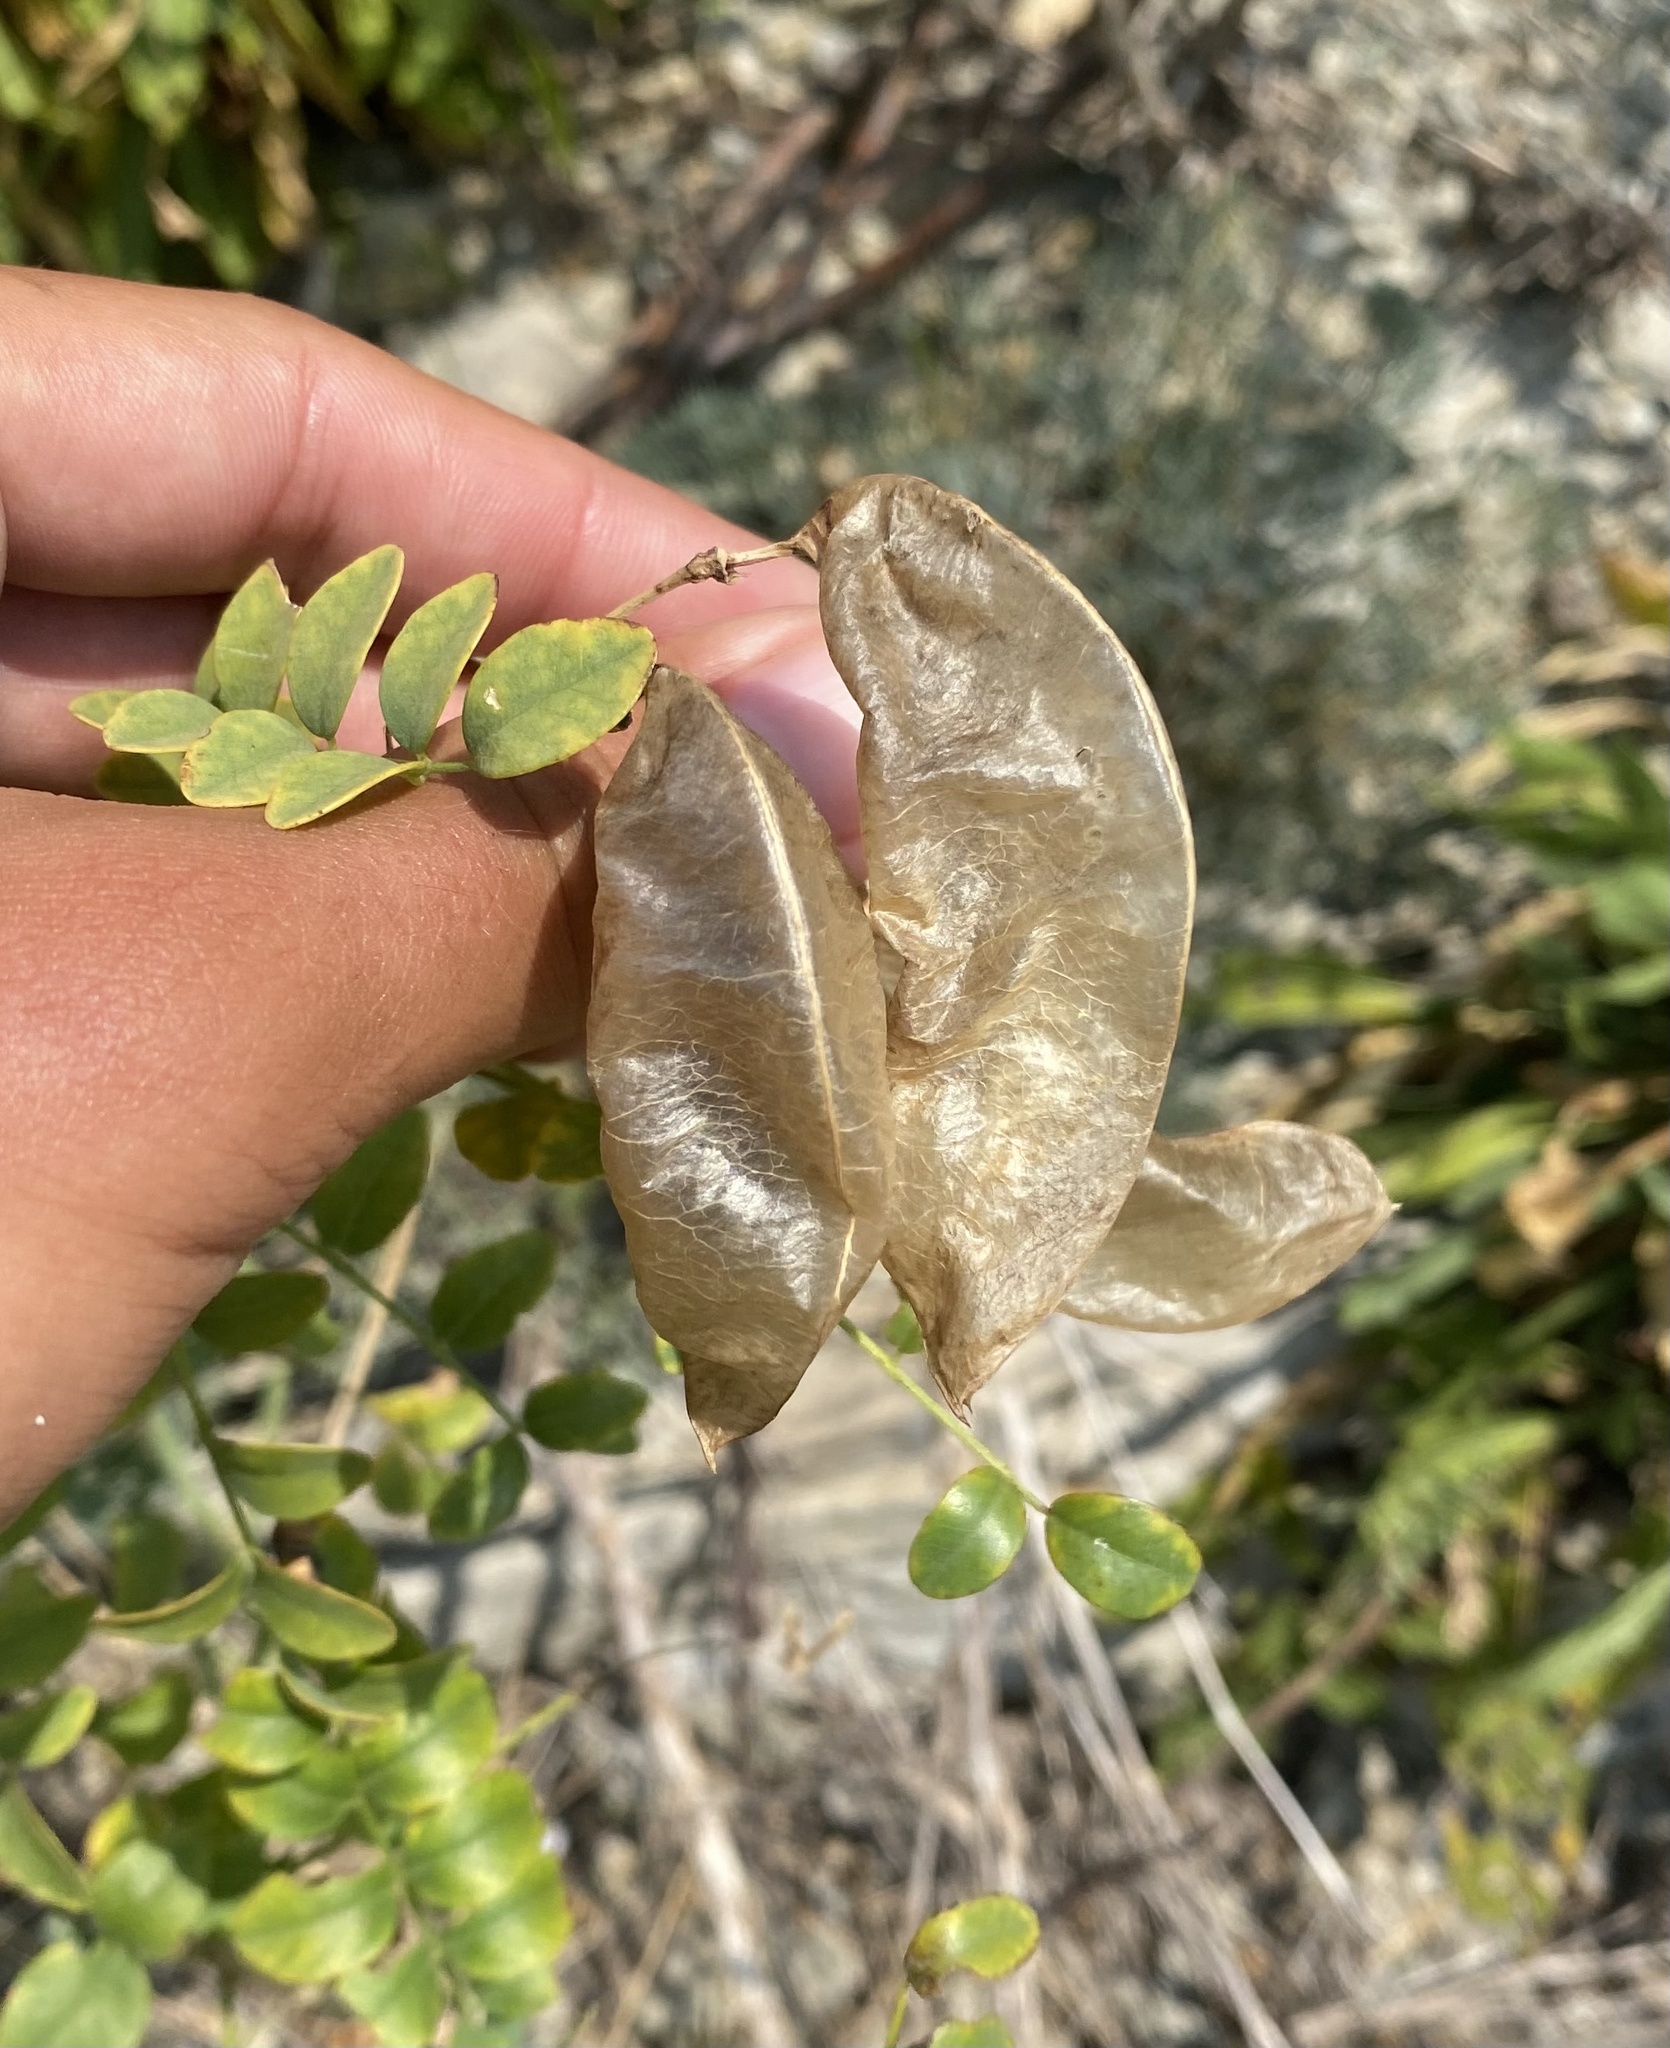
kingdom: Plantae
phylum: Tracheophyta
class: Magnoliopsida
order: Fabales
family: Fabaceae
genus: Colutea
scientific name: Colutea cilicica
